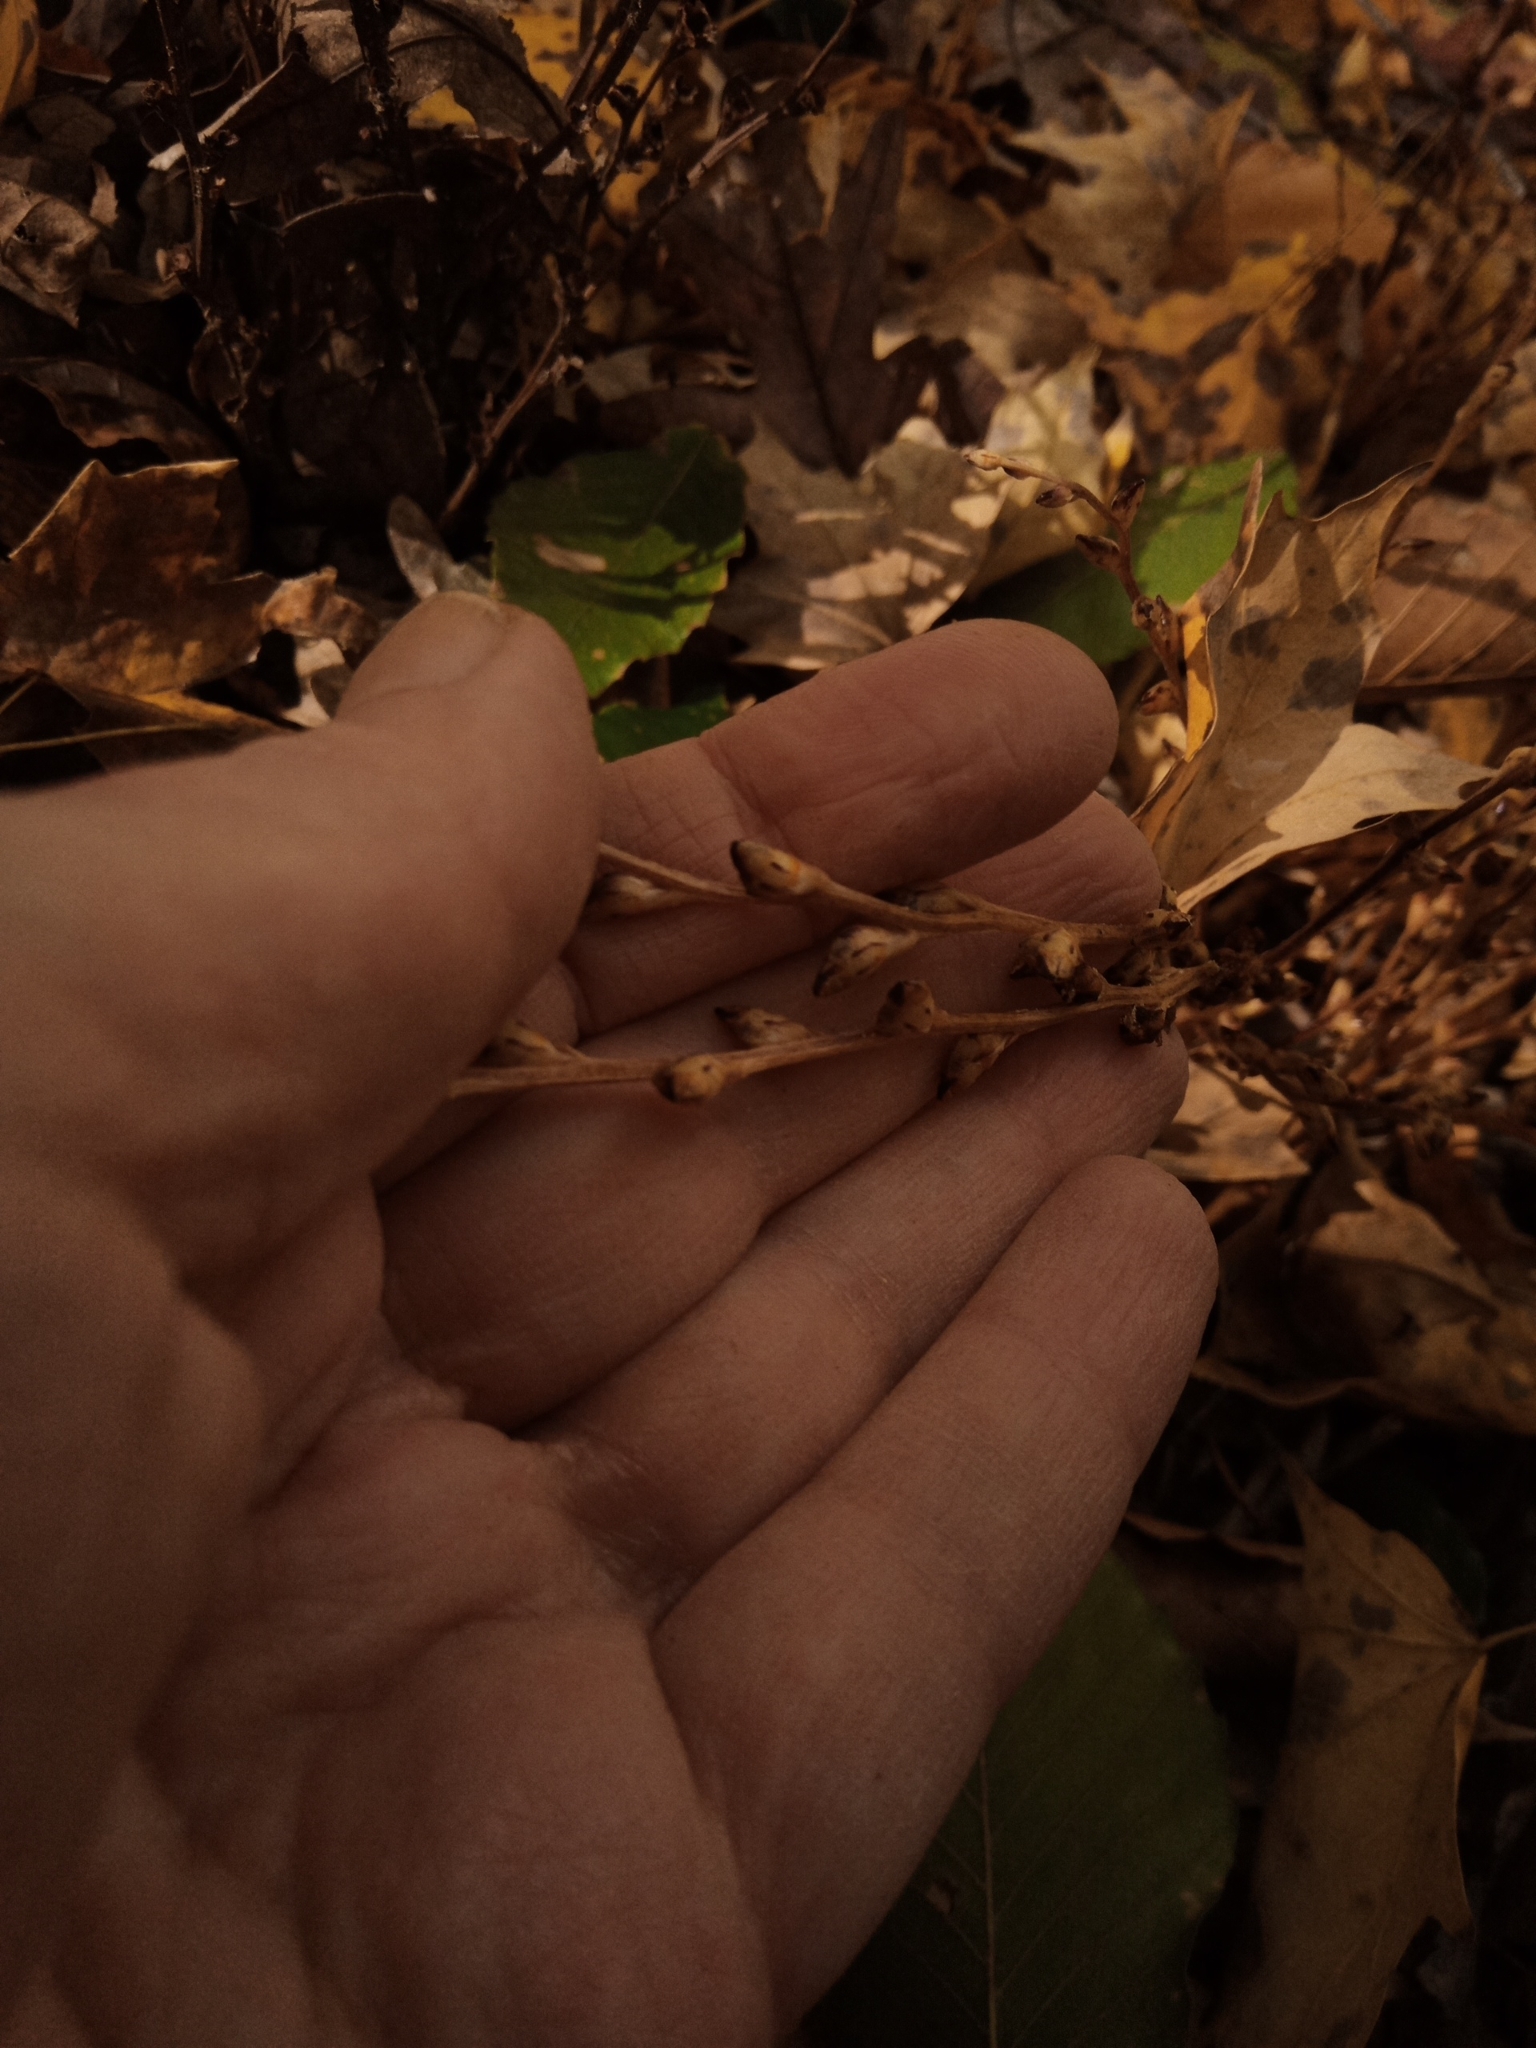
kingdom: Plantae
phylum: Tracheophyta
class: Magnoliopsida
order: Lamiales
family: Orobanchaceae
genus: Epifagus
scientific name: Epifagus virginiana
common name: Beechdrops
